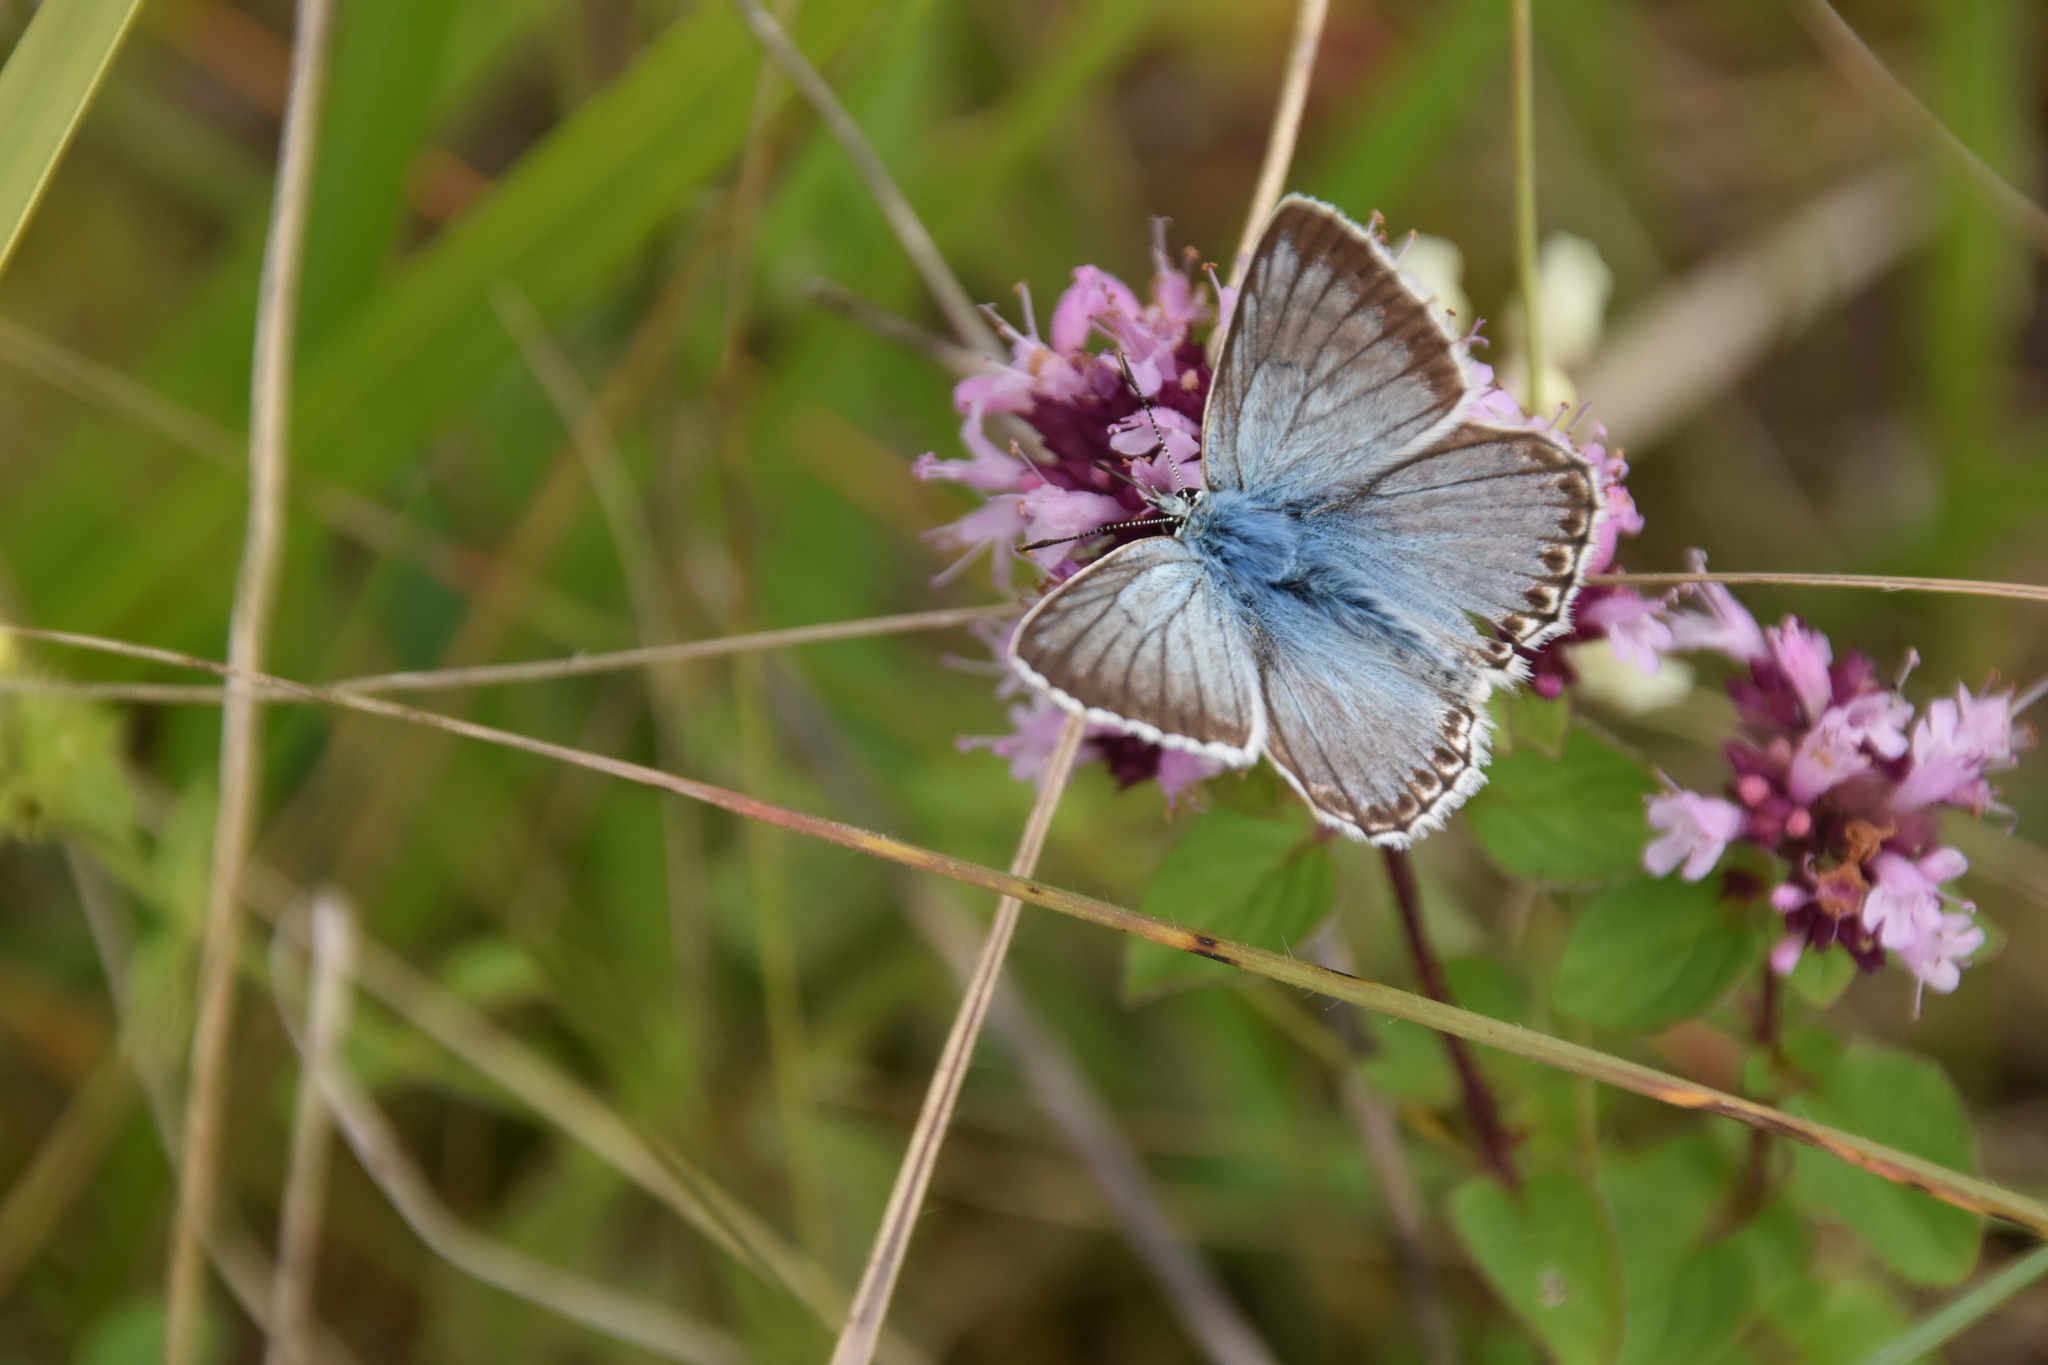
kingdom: Animalia
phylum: Arthropoda
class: Insecta
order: Lepidoptera
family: Lycaenidae
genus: Lysandra
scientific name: Lysandra coridon
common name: Chalkhill blue
